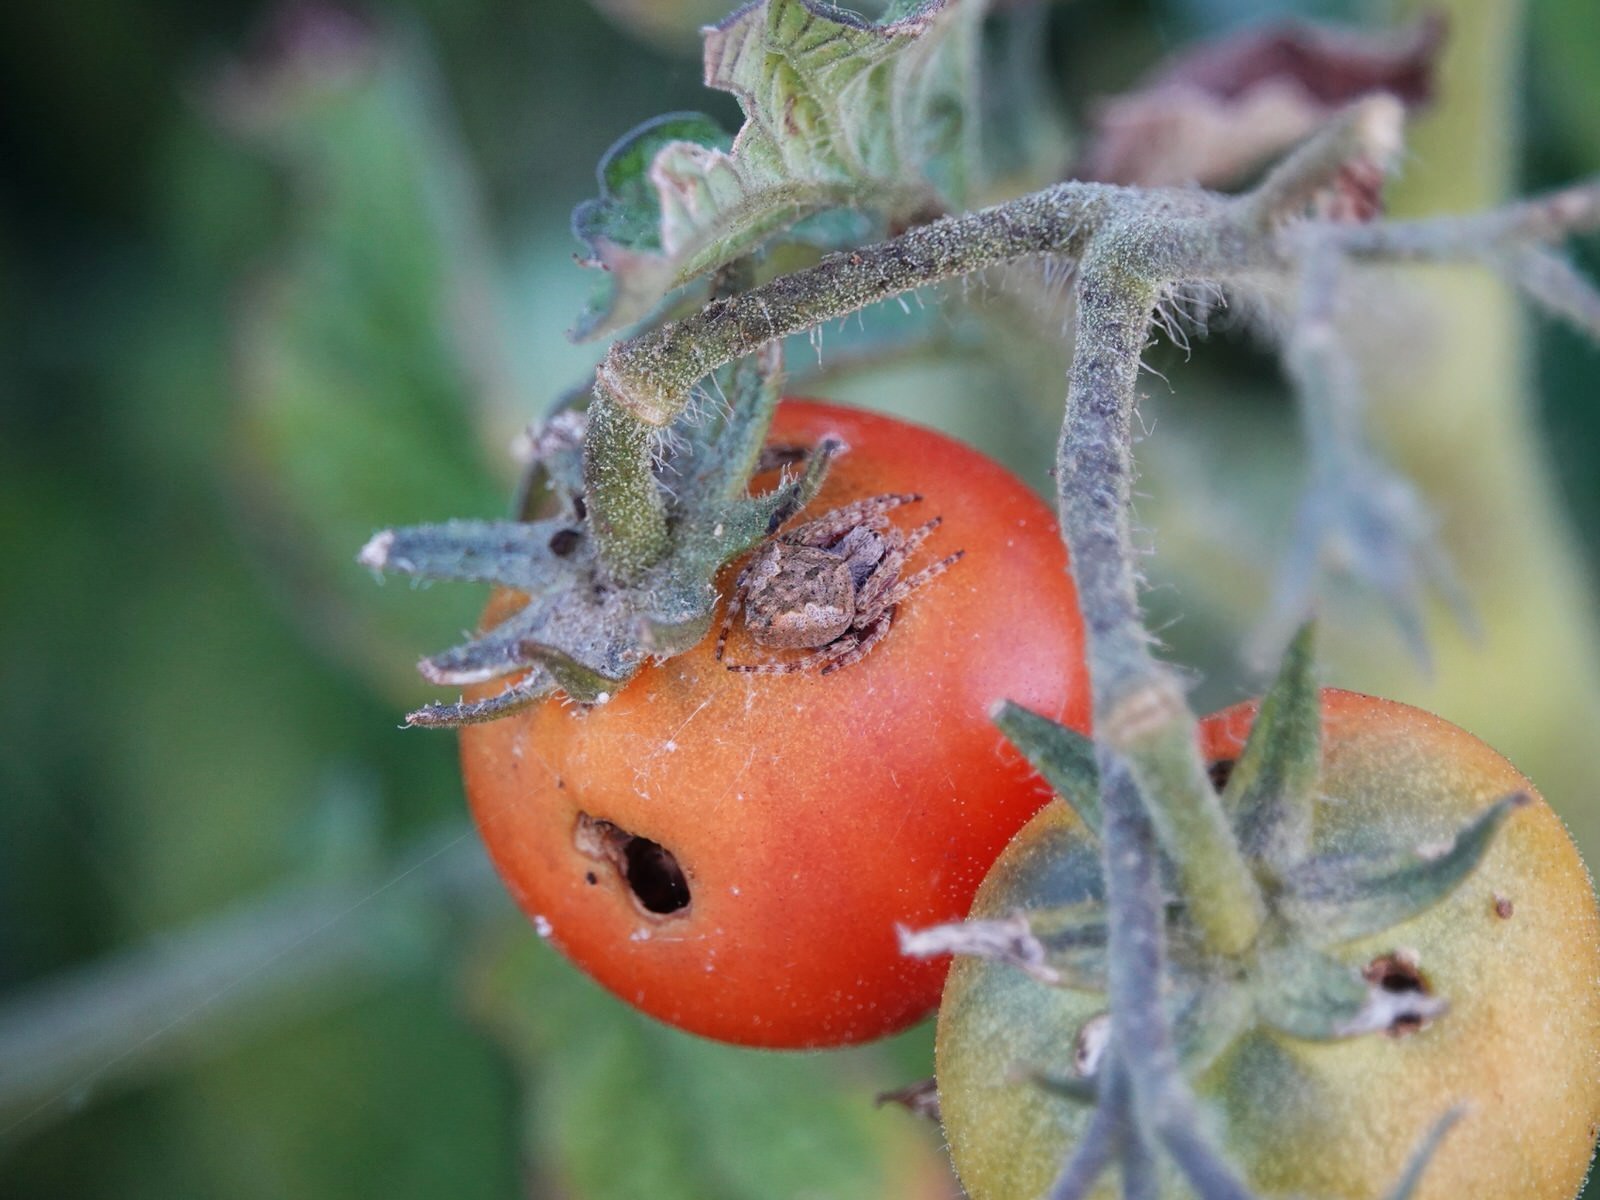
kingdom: Animalia
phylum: Arthropoda
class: Arachnida
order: Araneae
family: Araneidae
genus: Eriophora
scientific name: Eriophora pustulosa
